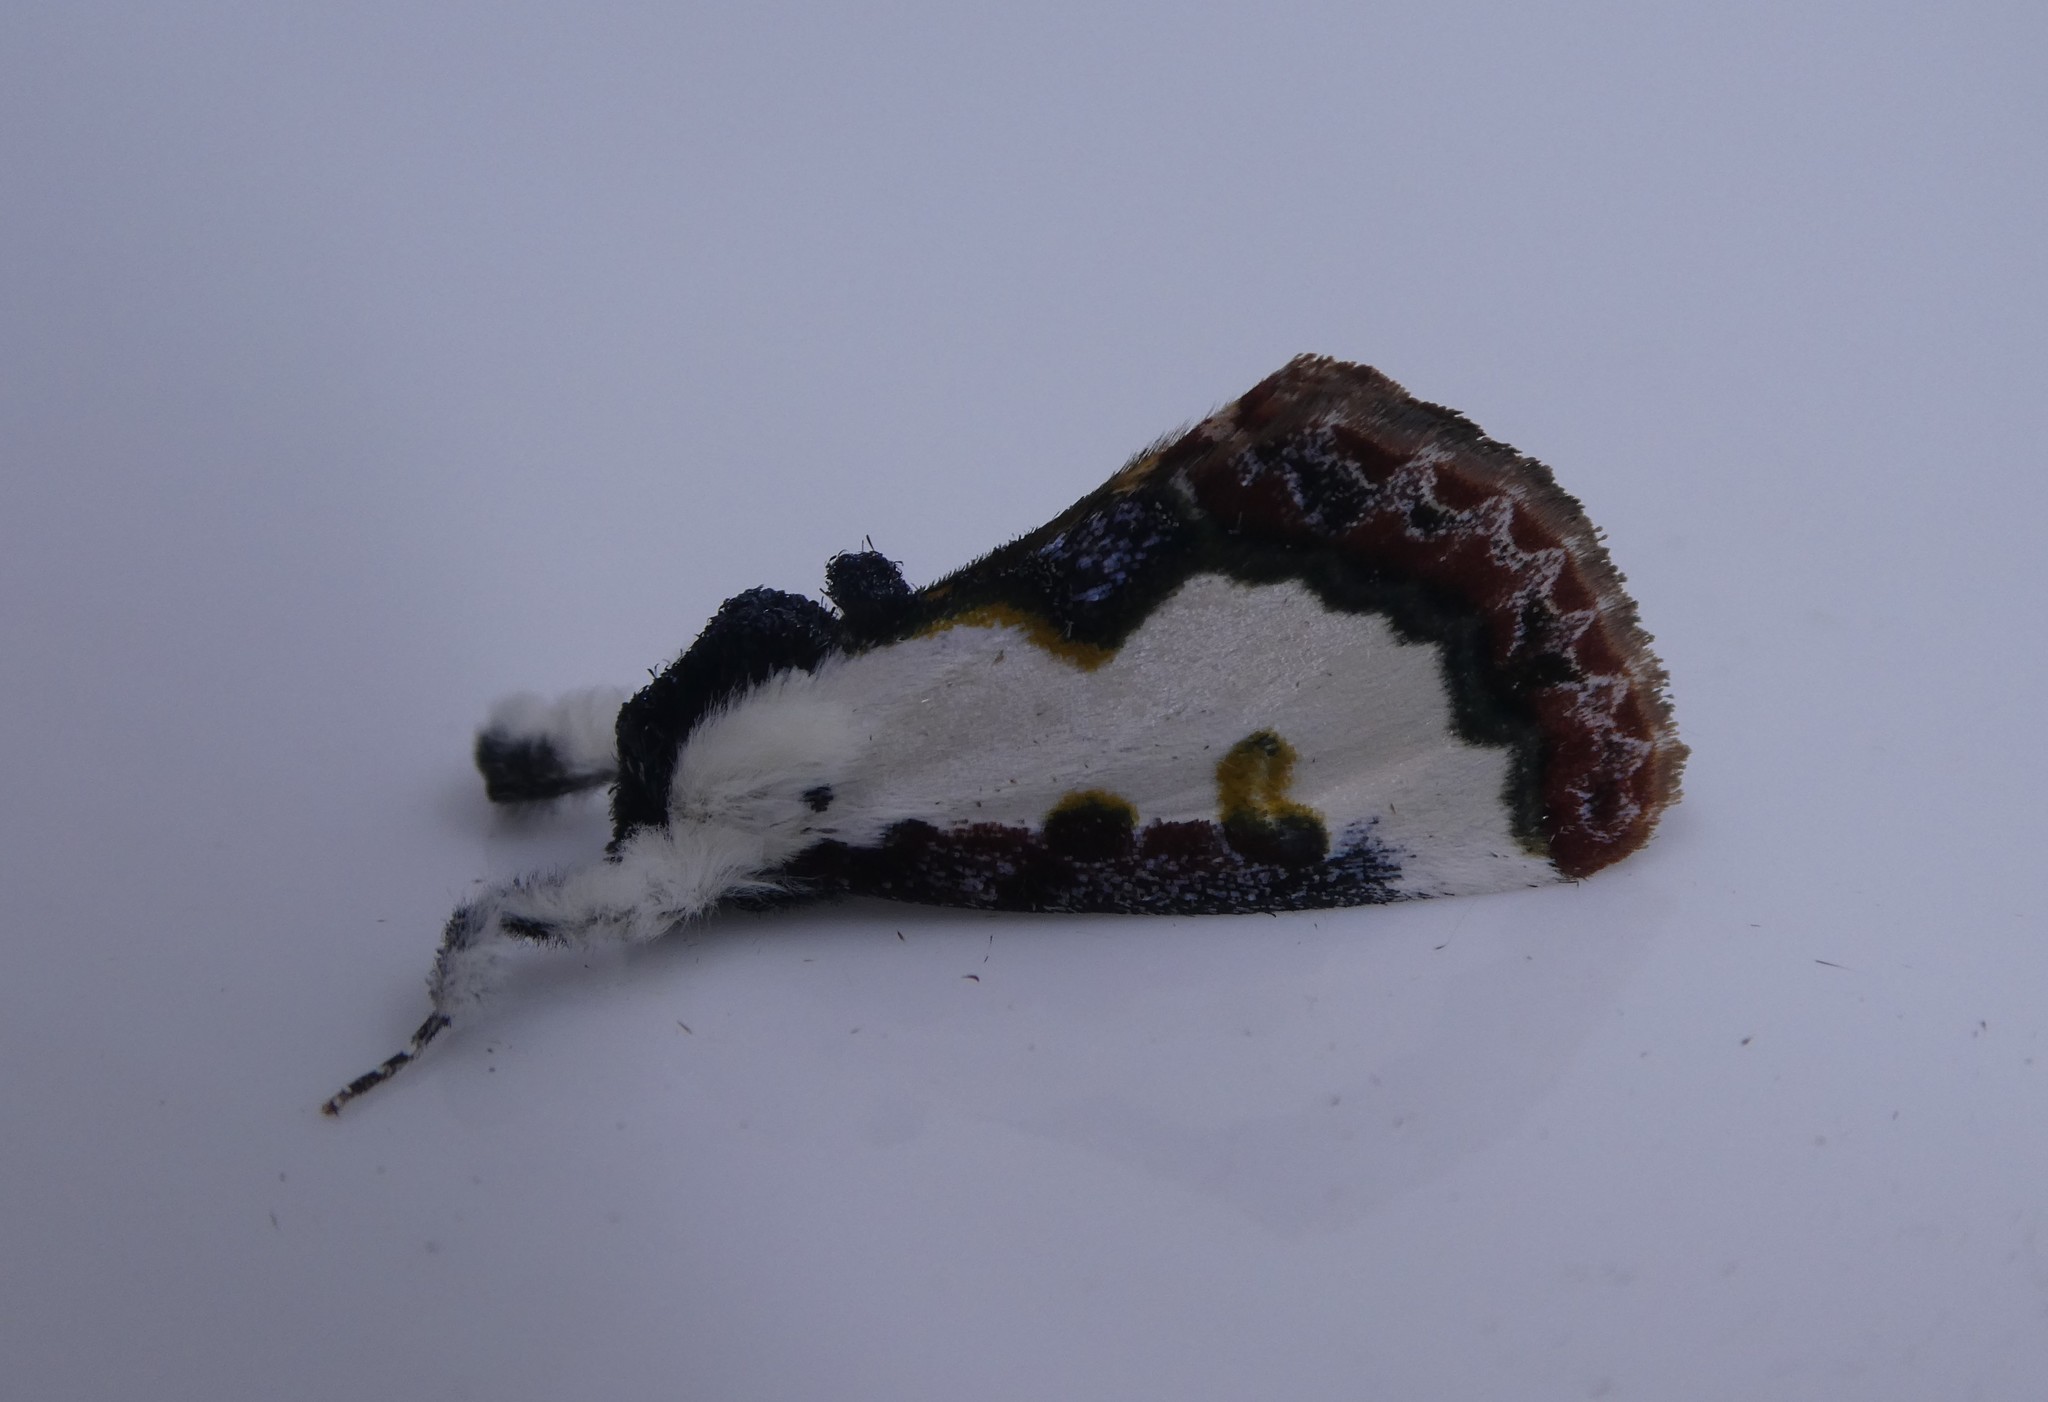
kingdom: Animalia
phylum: Arthropoda
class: Insecta
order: Lepidoptera
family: Noctuidae
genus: Eudryas
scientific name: Eudryas unio
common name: Pearly wood-nymph
